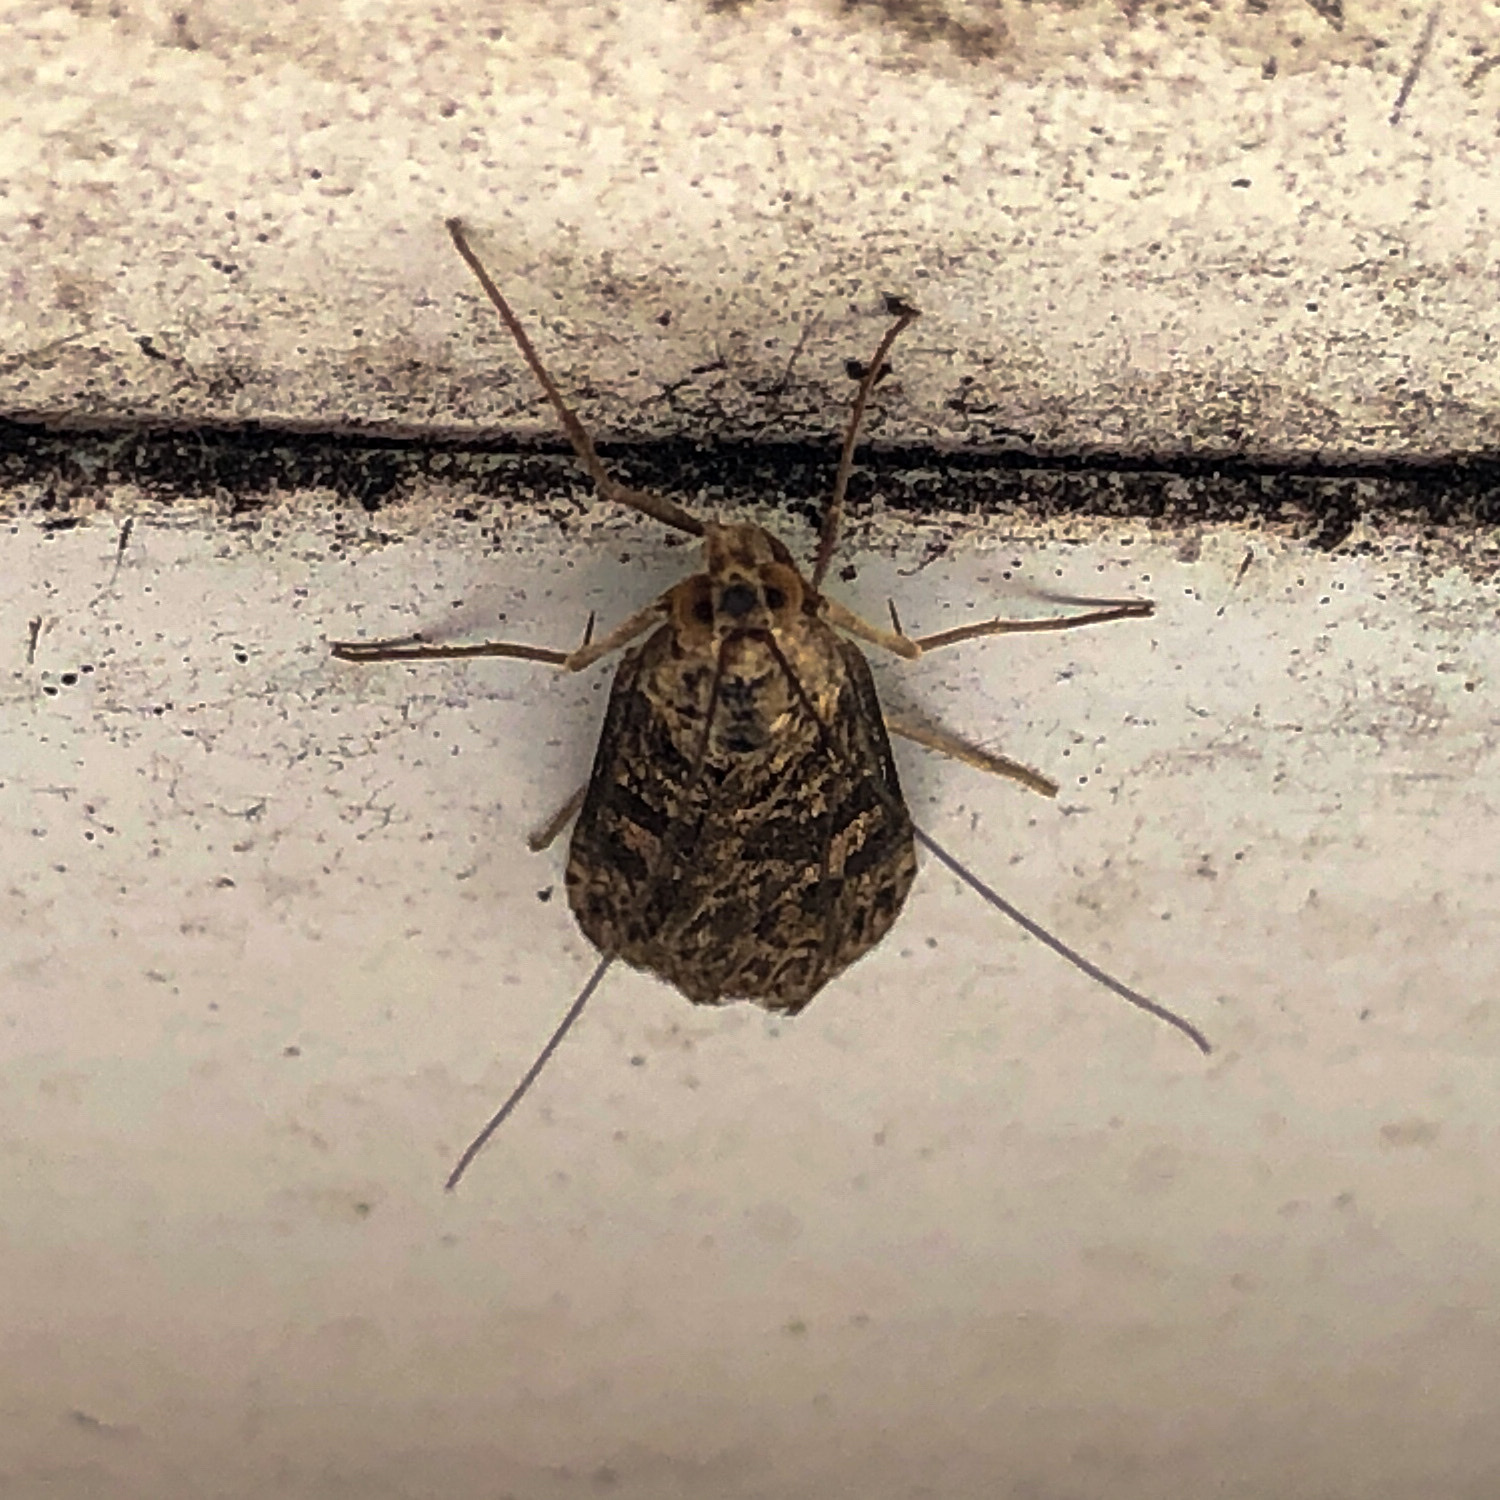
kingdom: Animalia
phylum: Arthropoda
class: Insecta
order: Lepidoptera
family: Crambidae
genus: Nomophila
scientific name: Nomophila nearctica
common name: American rush veneer
